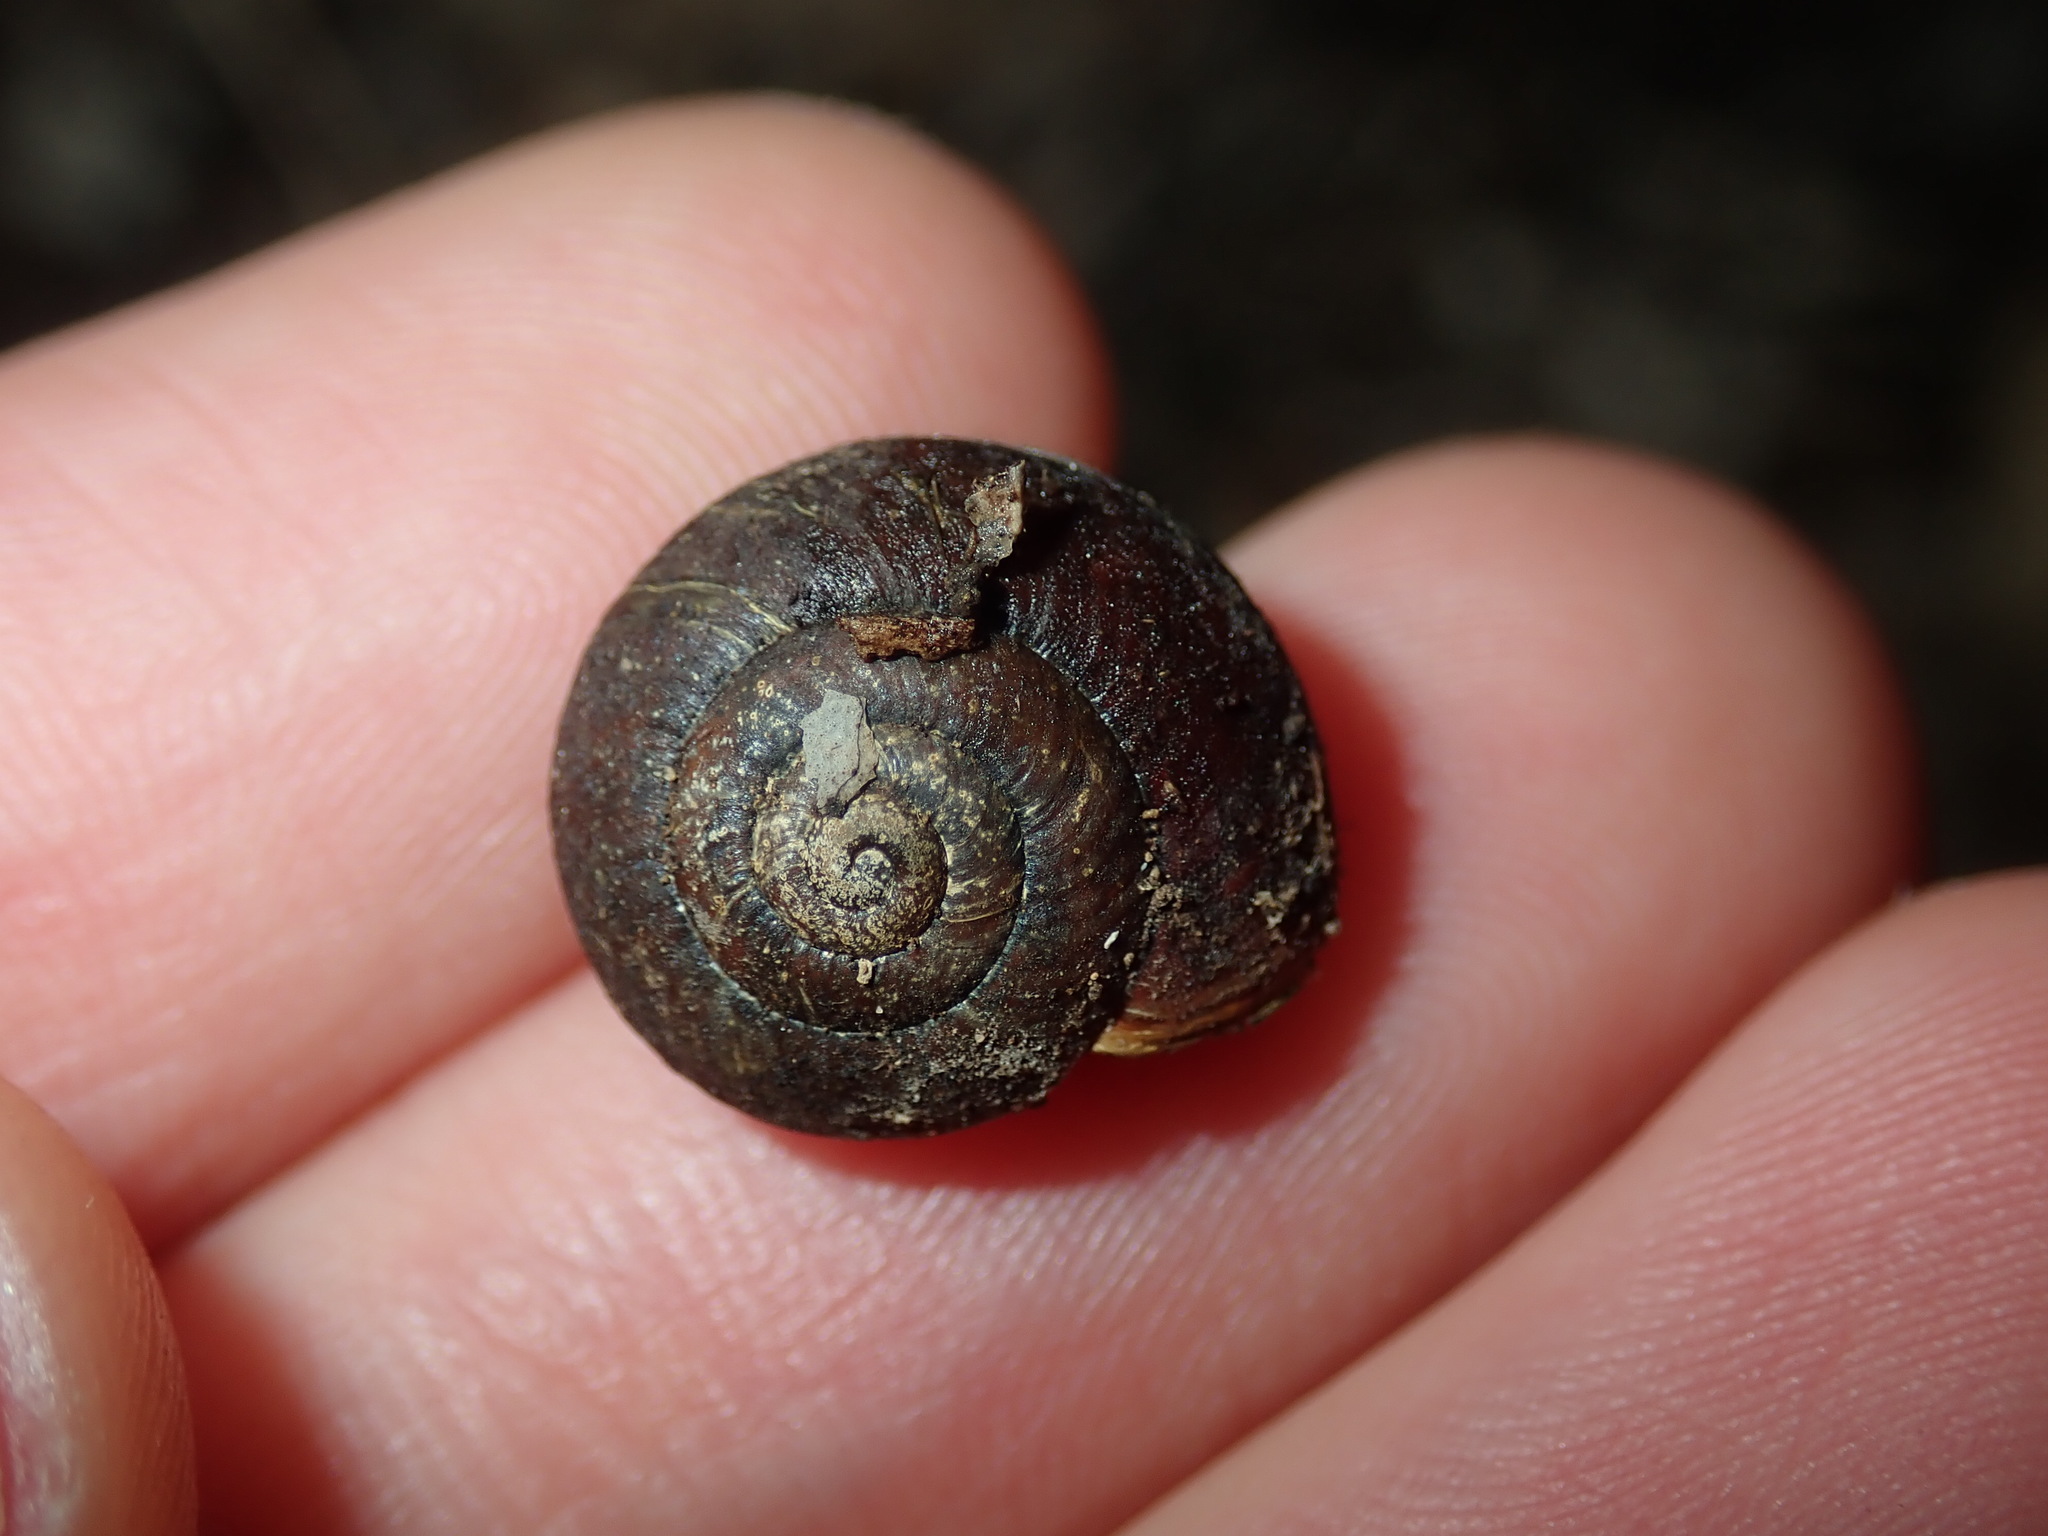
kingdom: Animalia
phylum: Mollusca
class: Gastropoda
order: Stylommatophora
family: Camaenidae
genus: Sauroconcha
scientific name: Sauroconcha sheai
